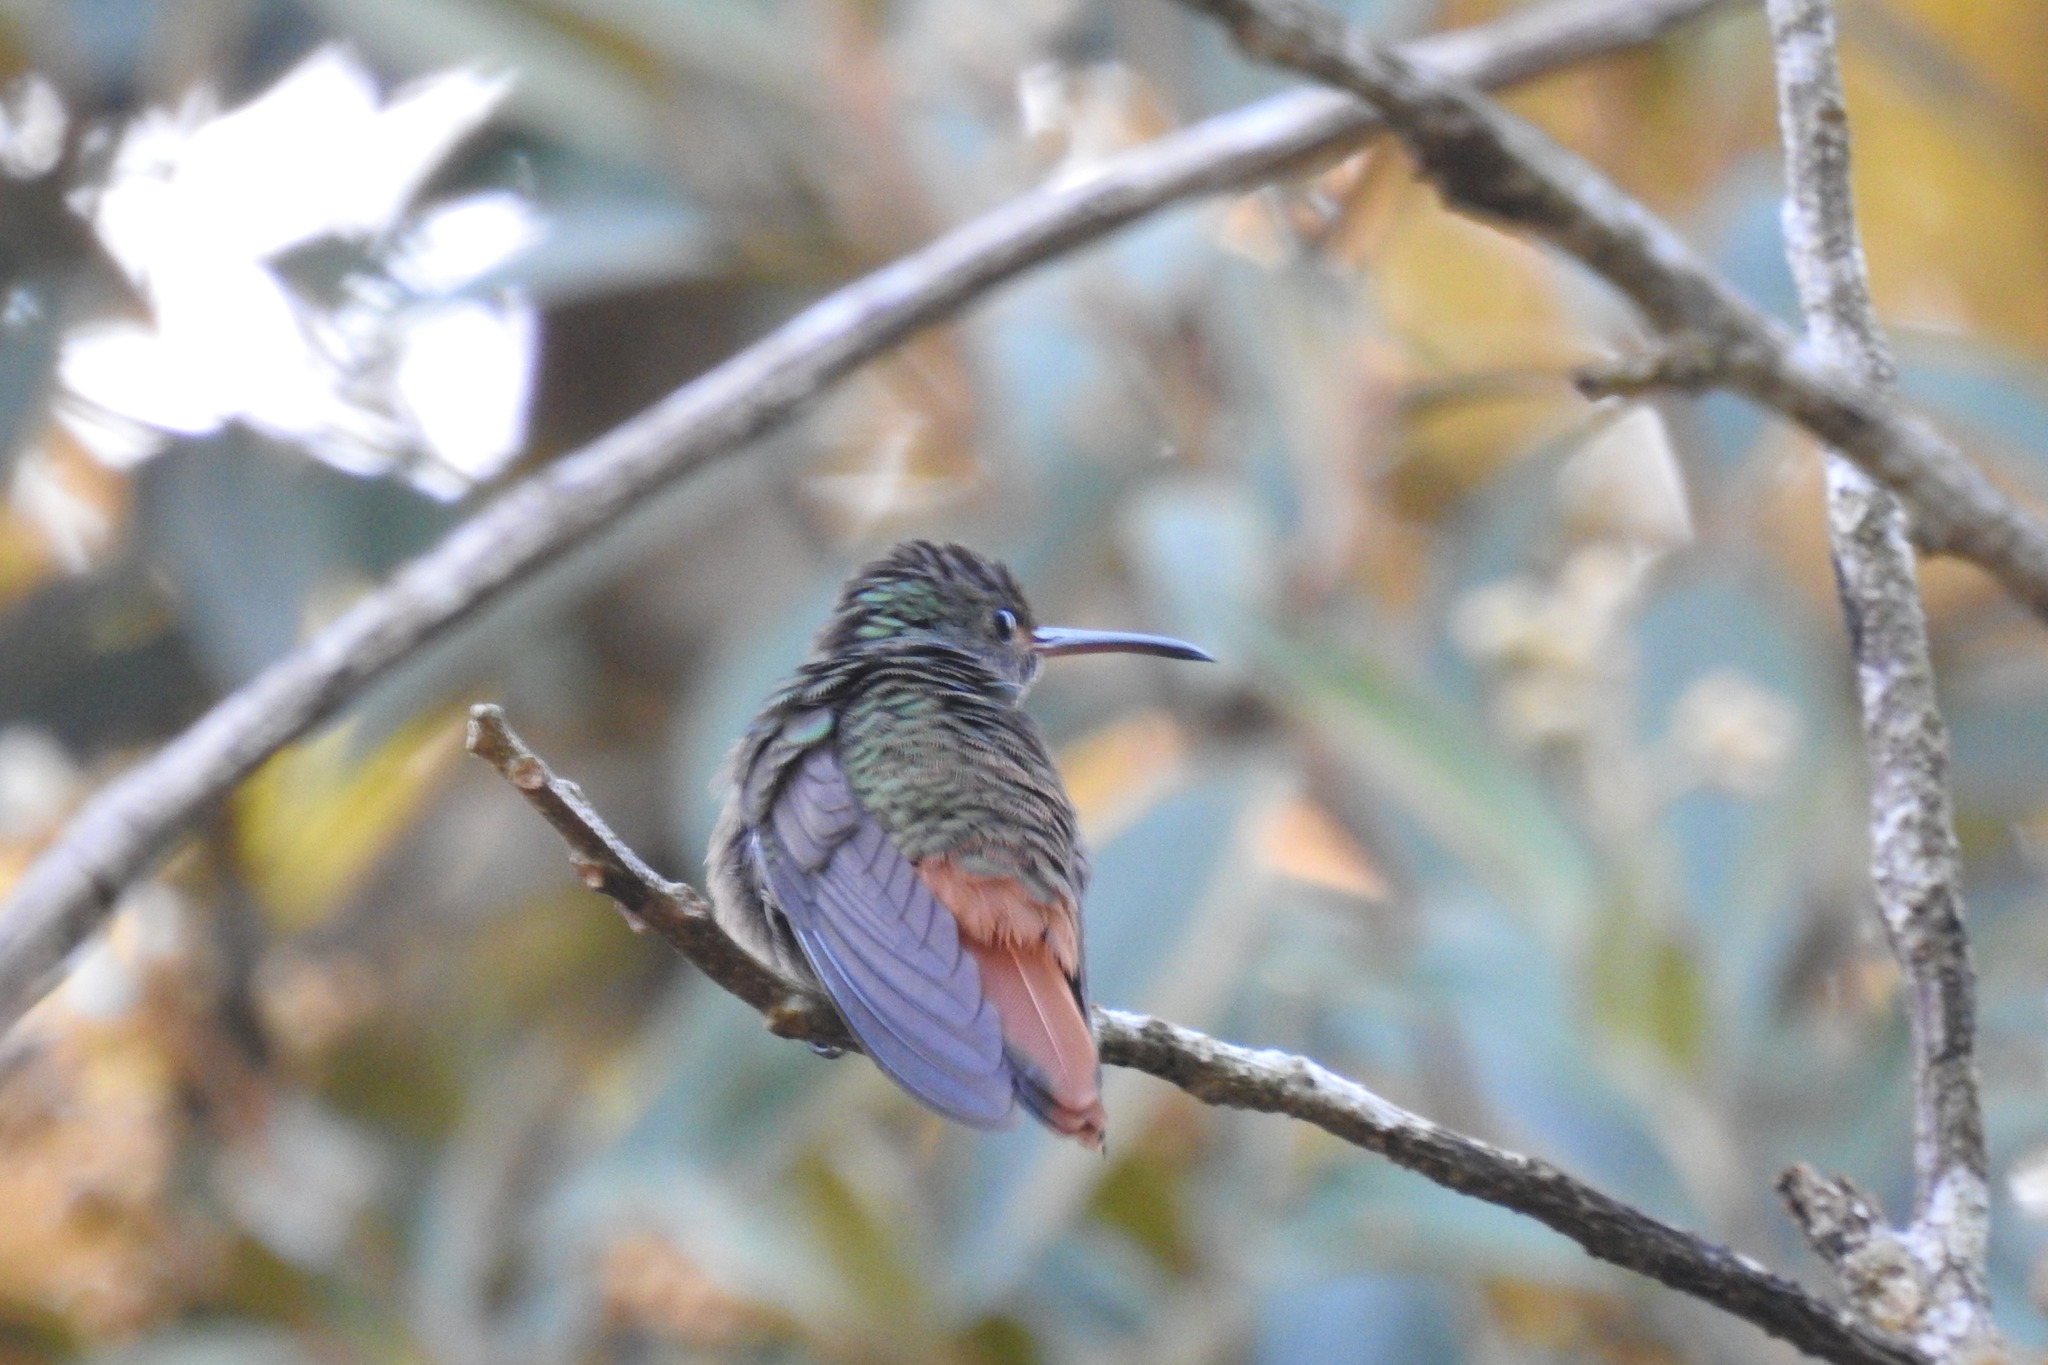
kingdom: Animalia
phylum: Chordata
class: Aves
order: Apodiformes
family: Trochilidae
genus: Amazilia
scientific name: Amazilia tzacatl
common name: Rufous-tailed hummingbird
